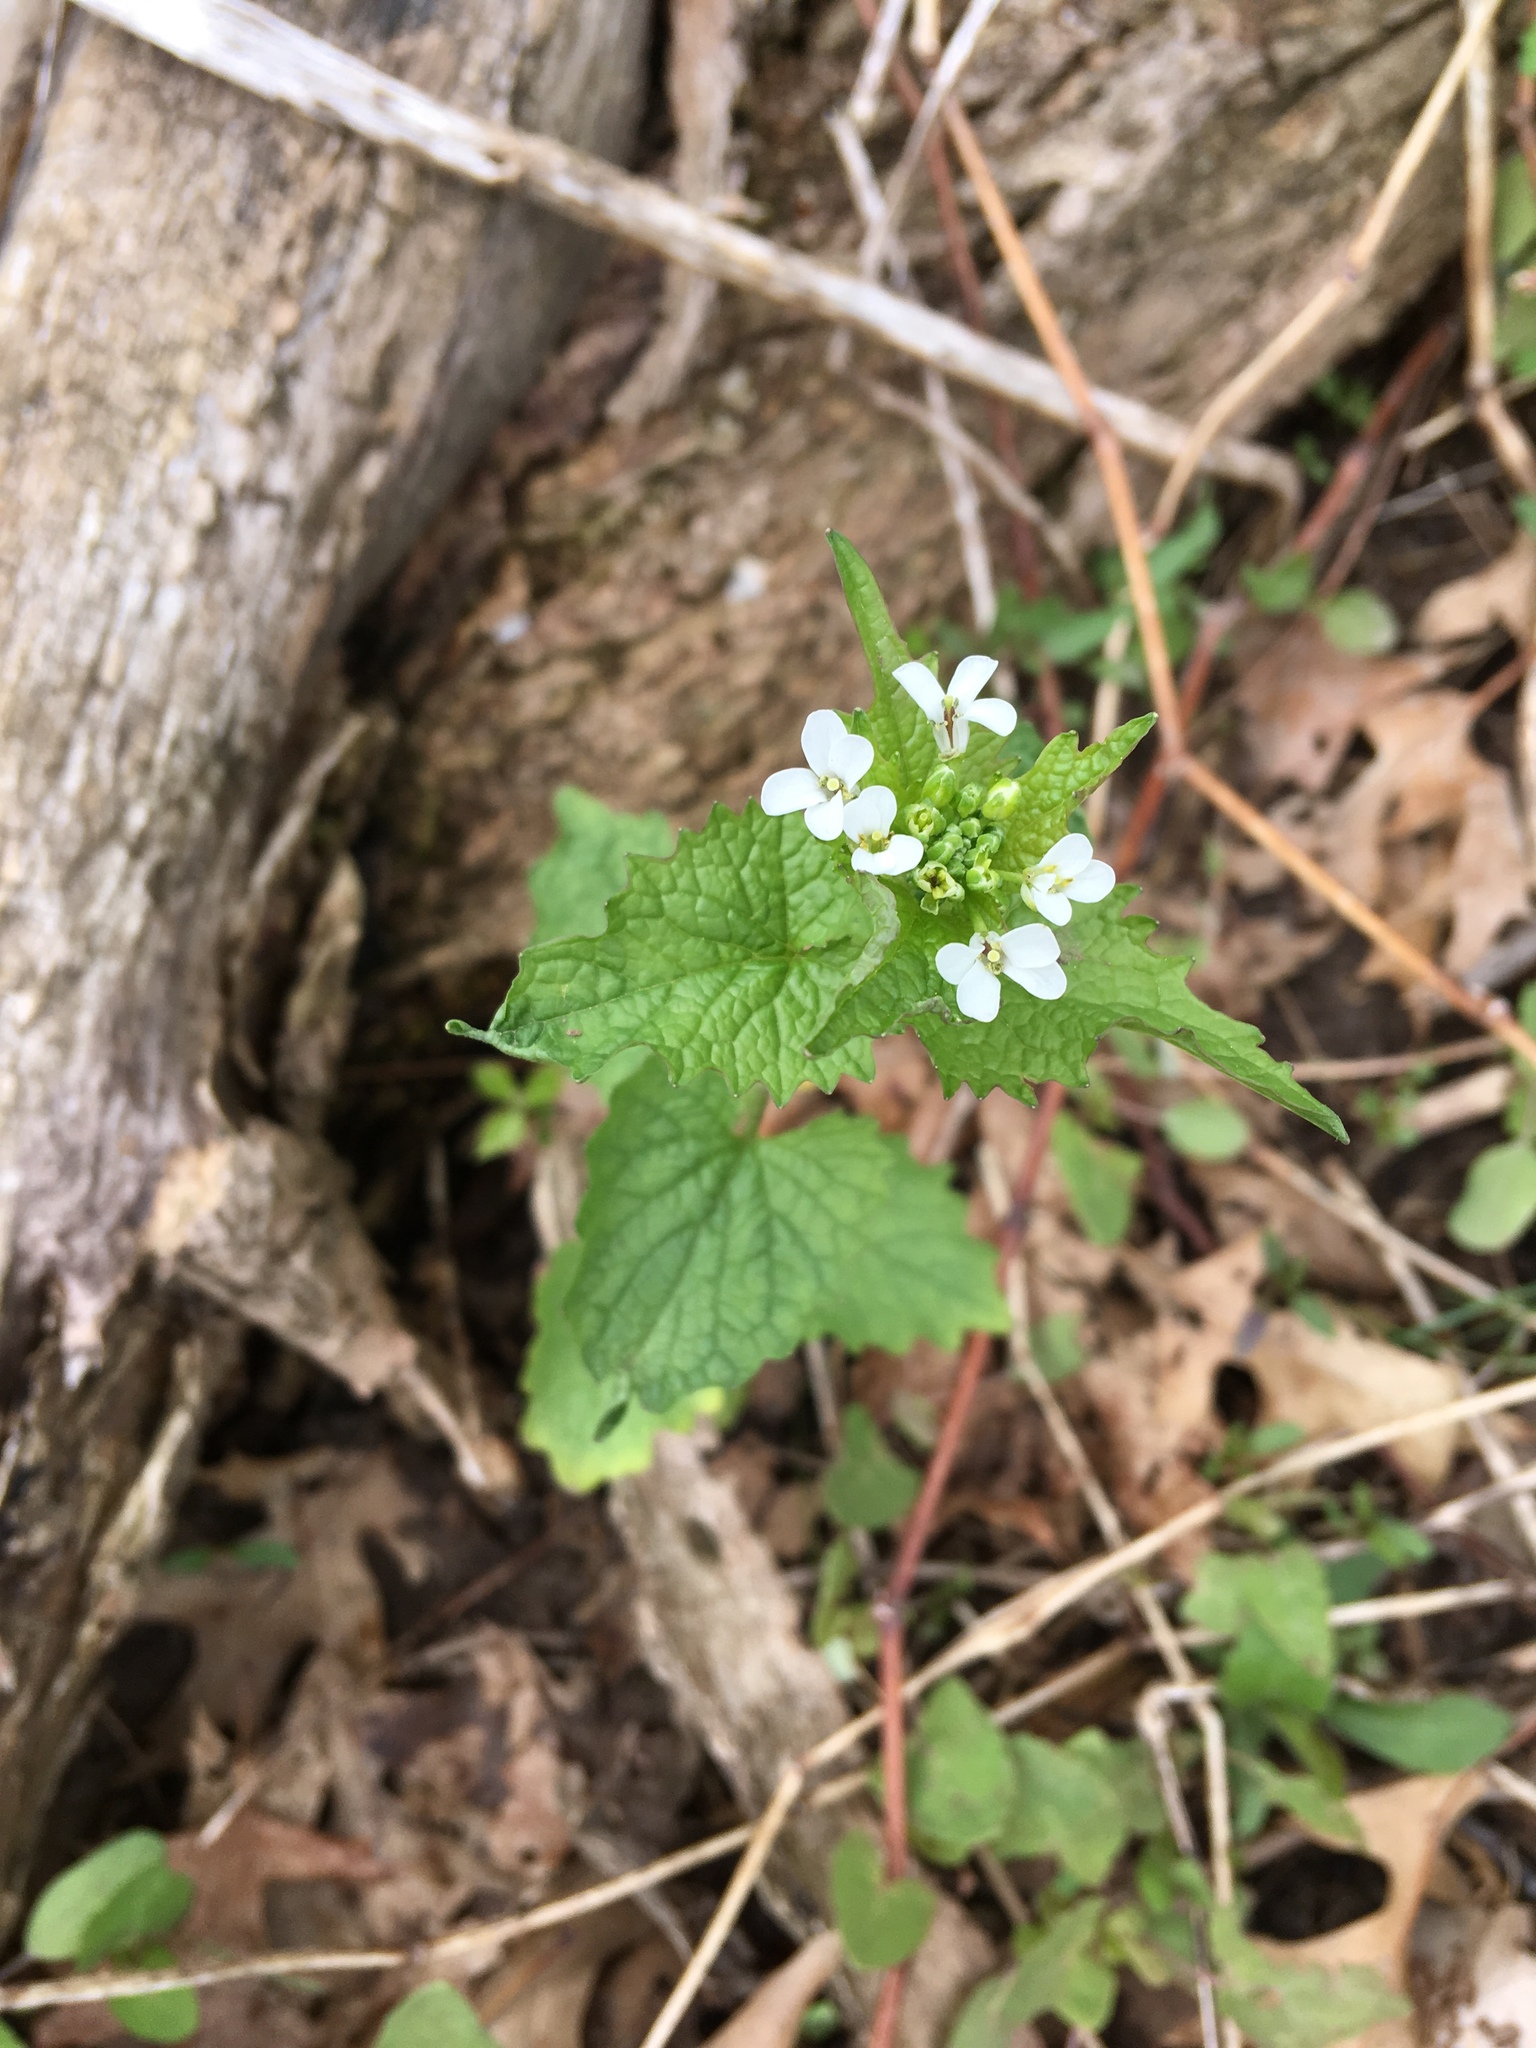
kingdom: Plantae
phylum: Tracheophyta
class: Magnoliopsida
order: Brassicales
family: Brassicaceae
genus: Alliaria
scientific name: Alliaria petiolata
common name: Garlic mustard
